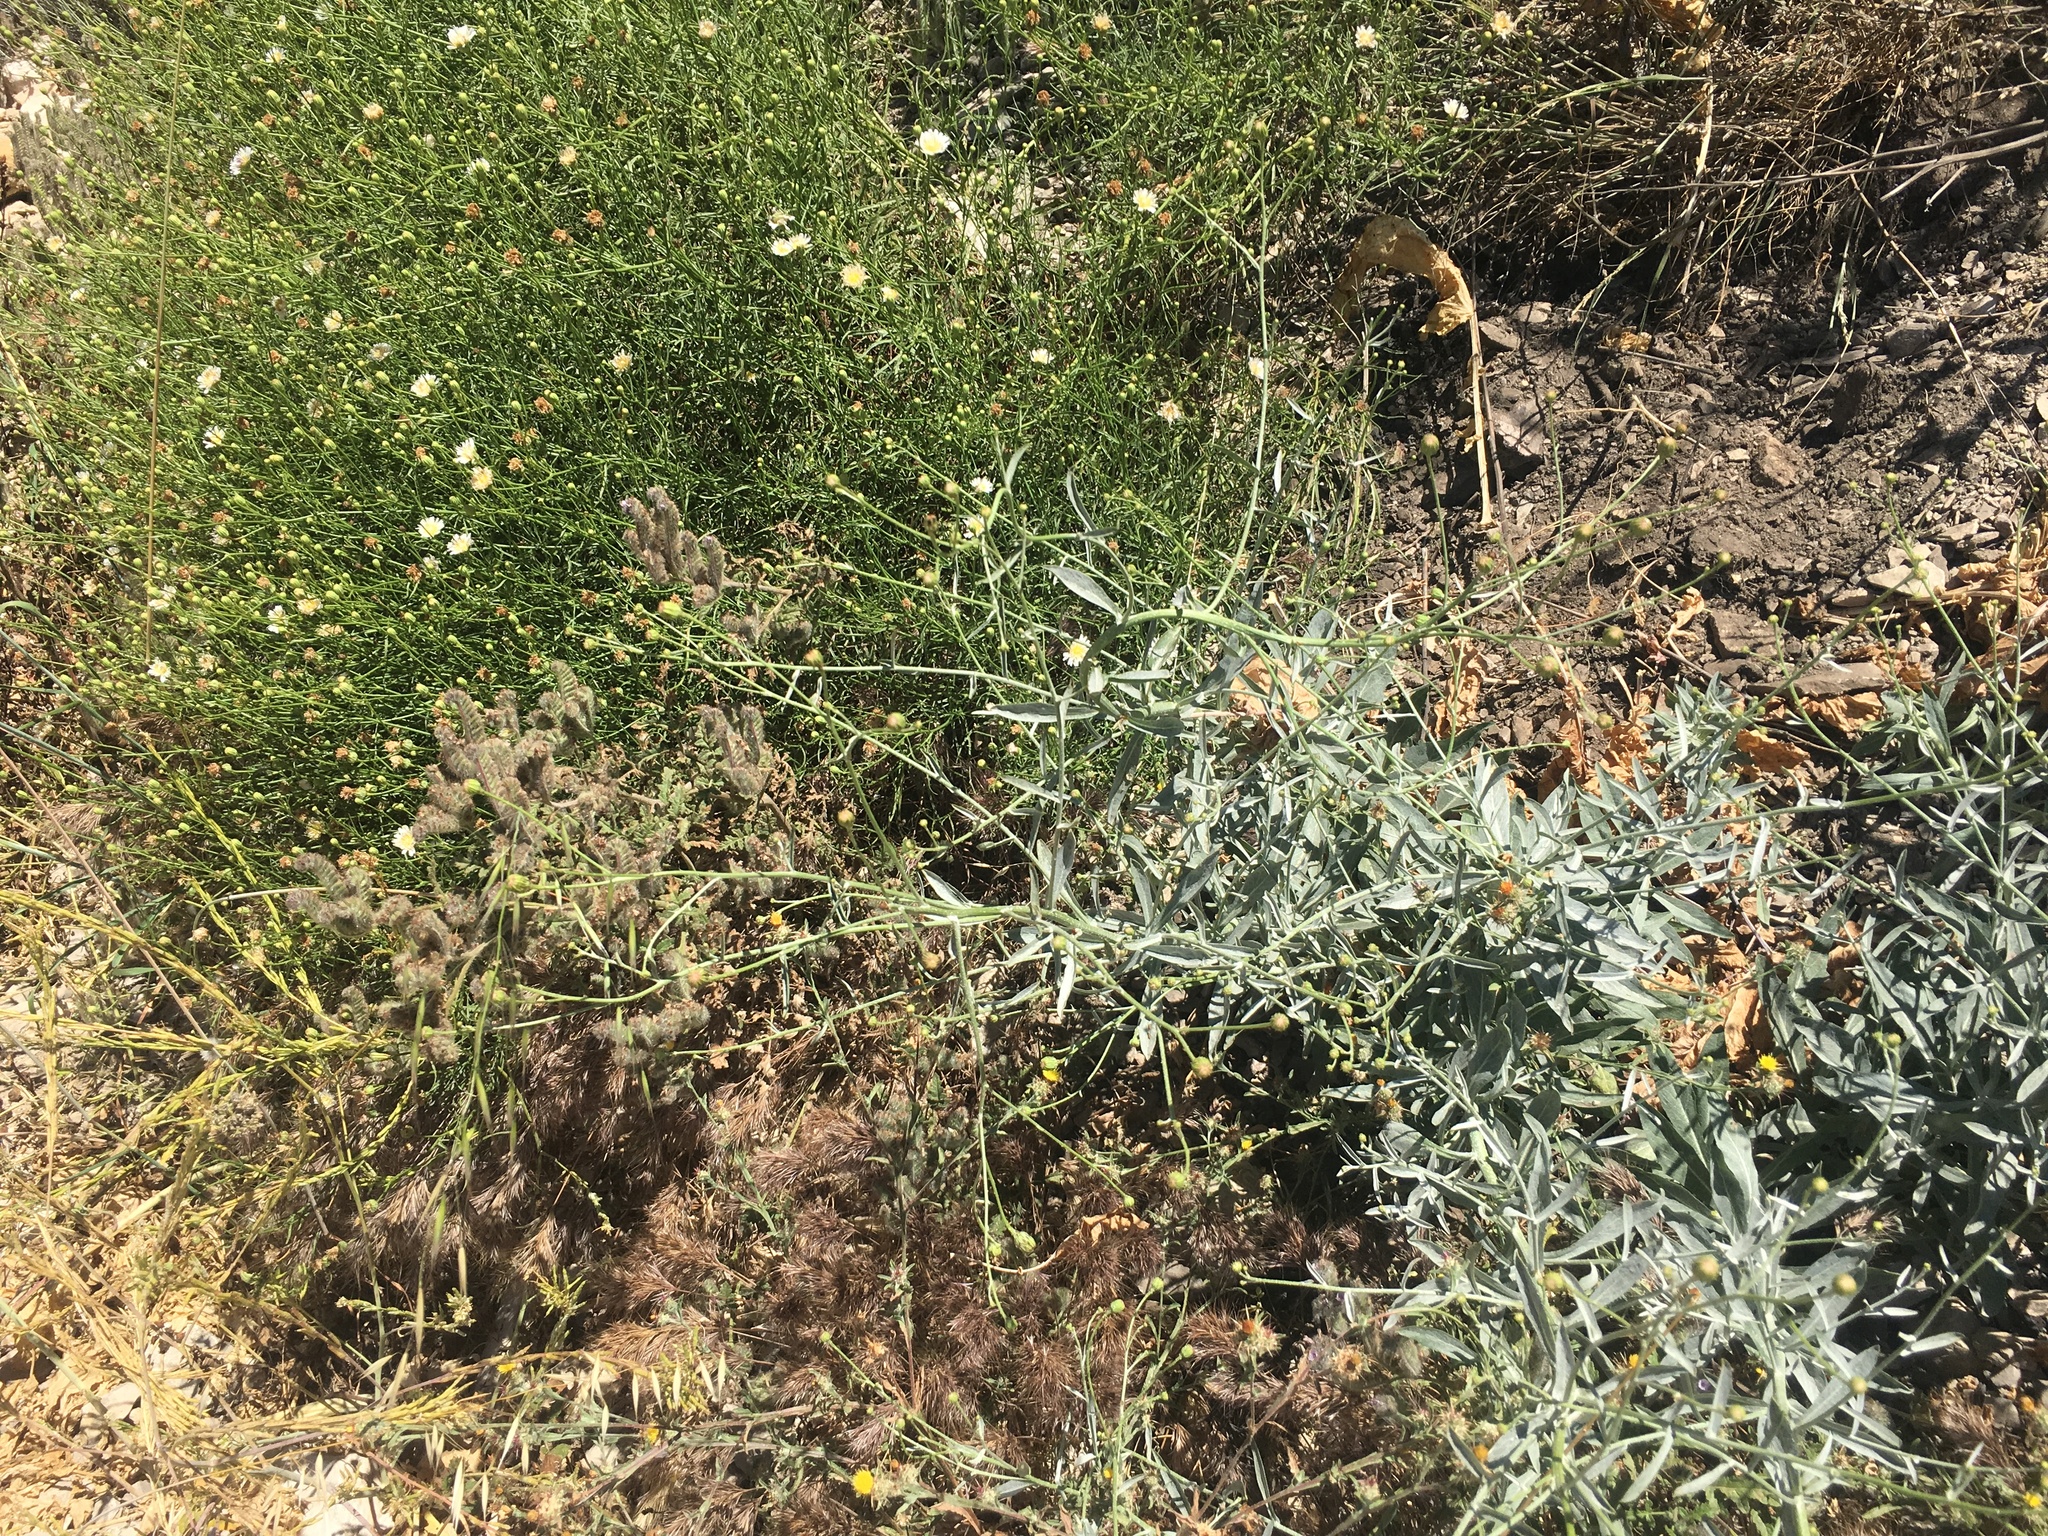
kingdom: Plantae
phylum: Tracheophyta
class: Magnoliopsida
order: Asterales
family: Asteraceae
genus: Malacothrix
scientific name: Malacothrix saxatilis
